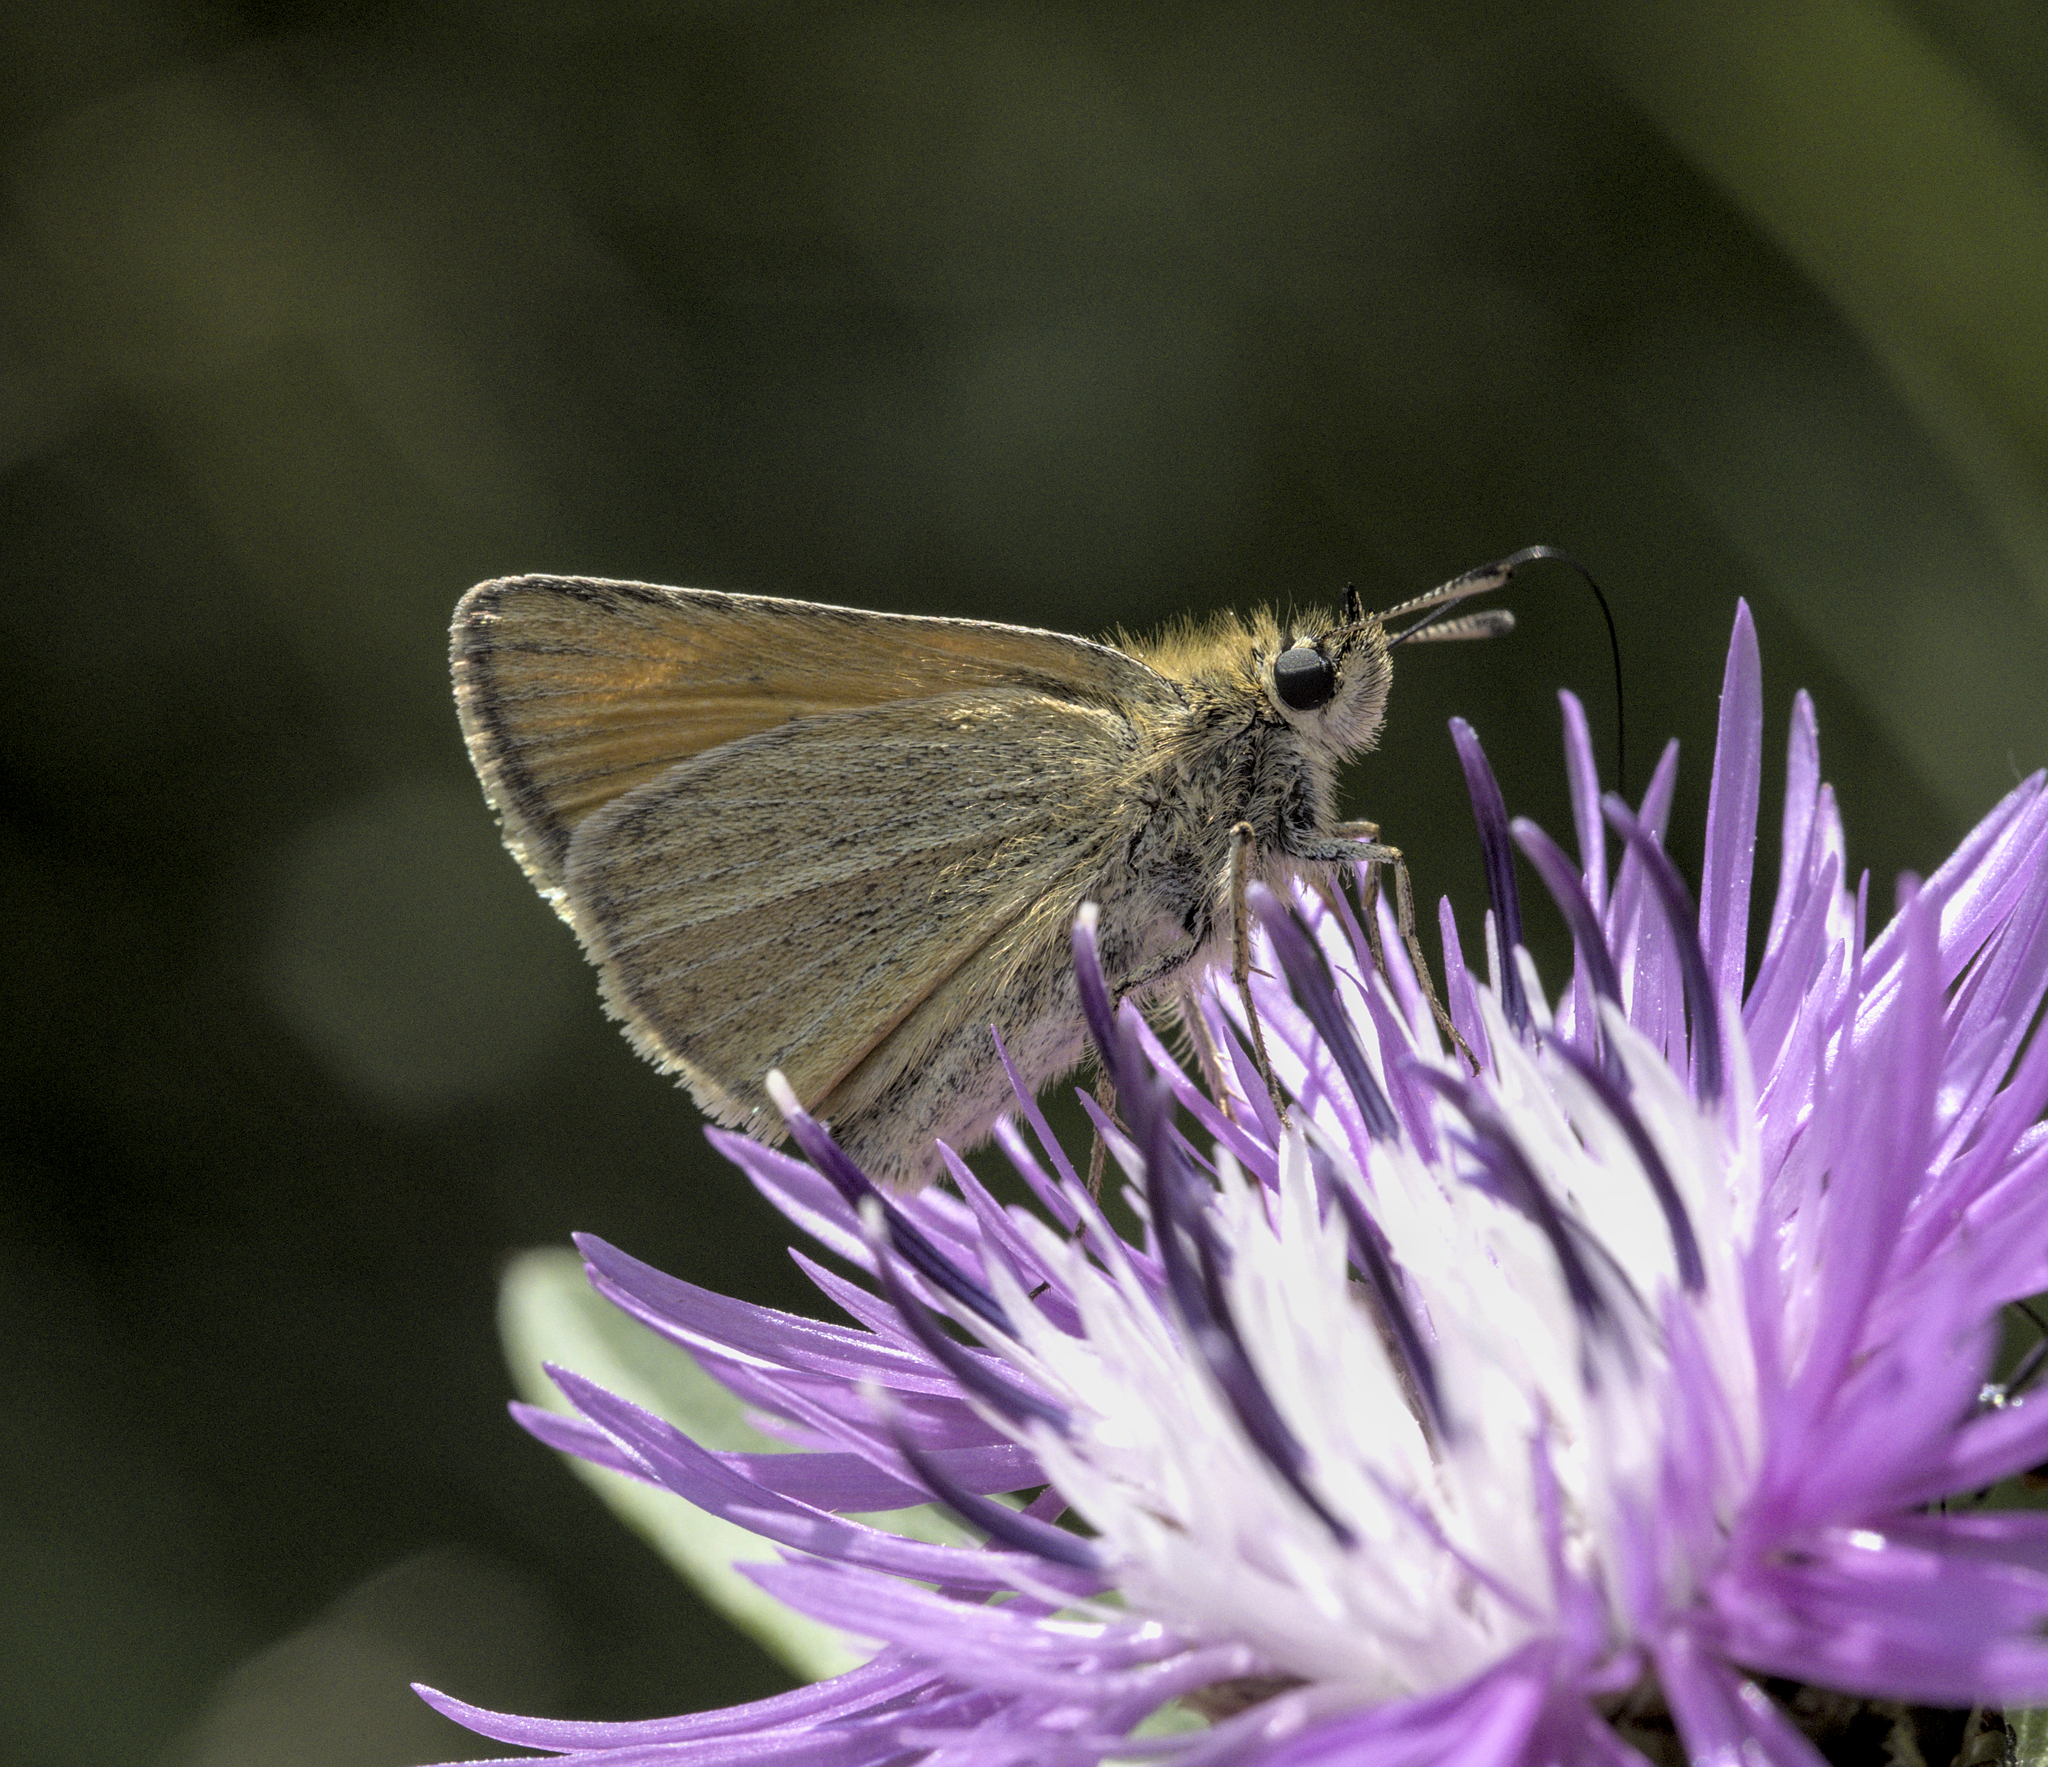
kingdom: Animalia
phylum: Arthropoda
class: Insecta
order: Lepidoptera
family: Hesperiidae
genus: Thymelicus
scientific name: Thymelicus lineola
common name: Essex skipper
